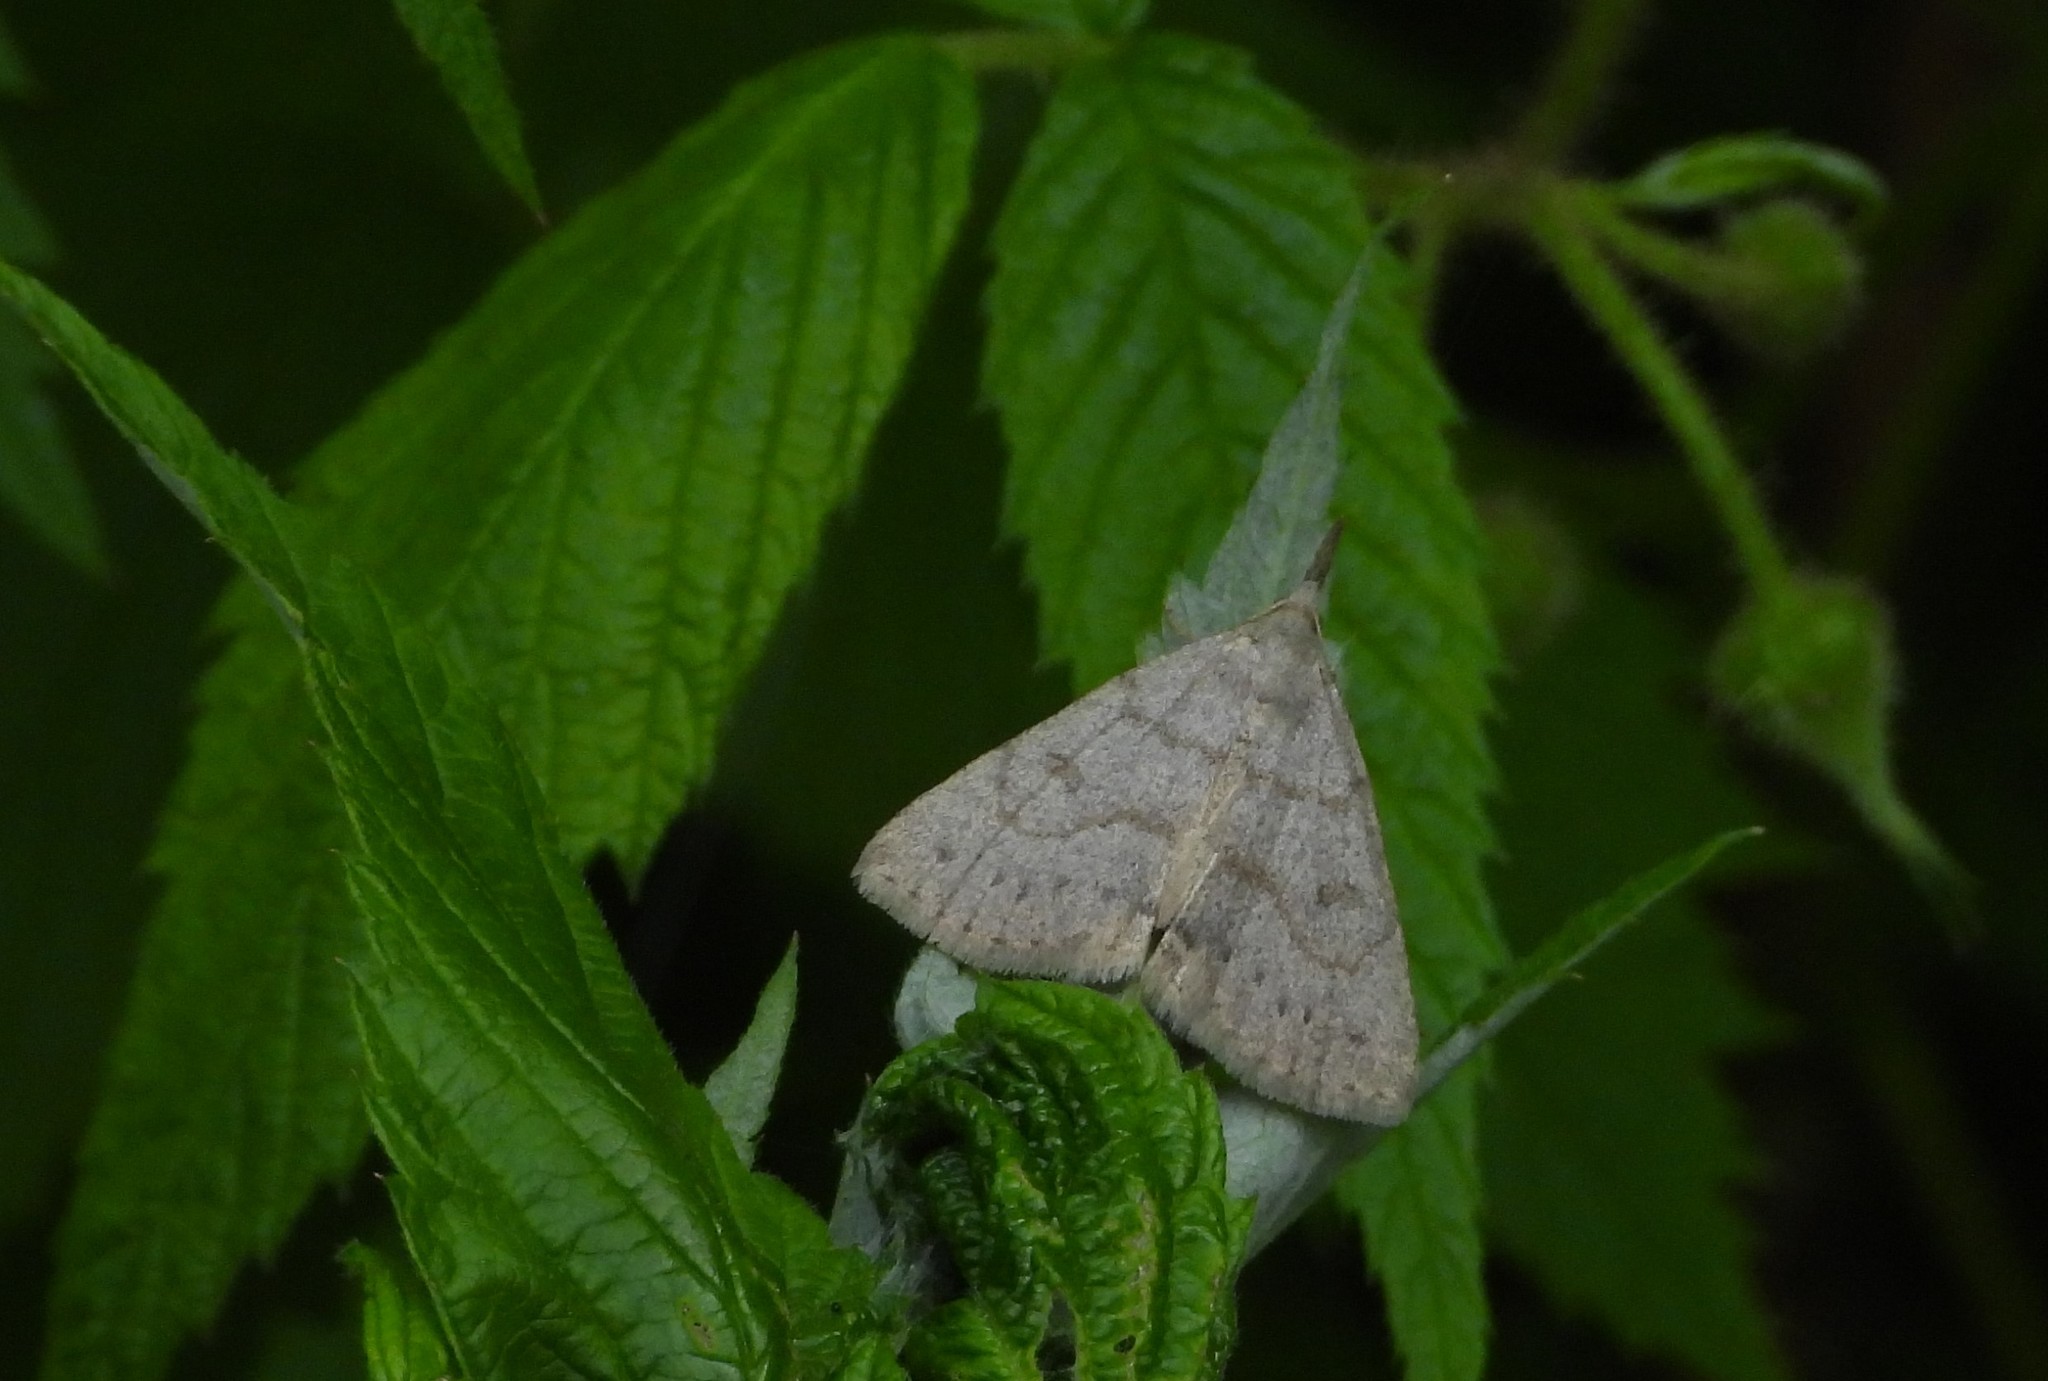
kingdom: Animalia
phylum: Arthropoda
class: Insecta
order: Lepidoptera
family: Erebidae
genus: Macrochilo
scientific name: Macrochilo morbidalis
